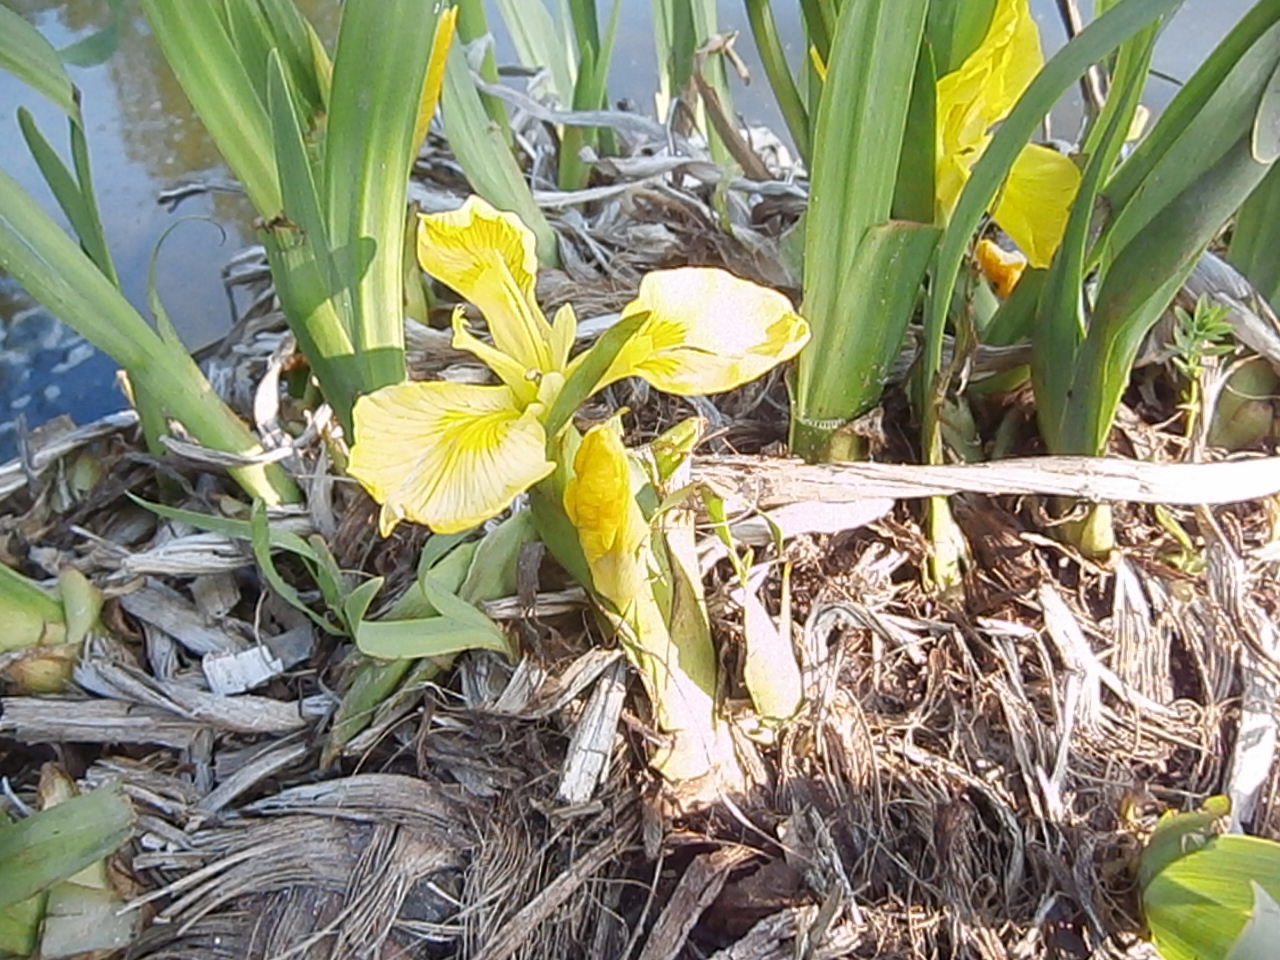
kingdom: Plantae
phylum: Tracheophyta
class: Liliopsida
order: Asparagales
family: Iridaceae
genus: Iris
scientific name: Iris pseudacorus
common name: Yellow flag
